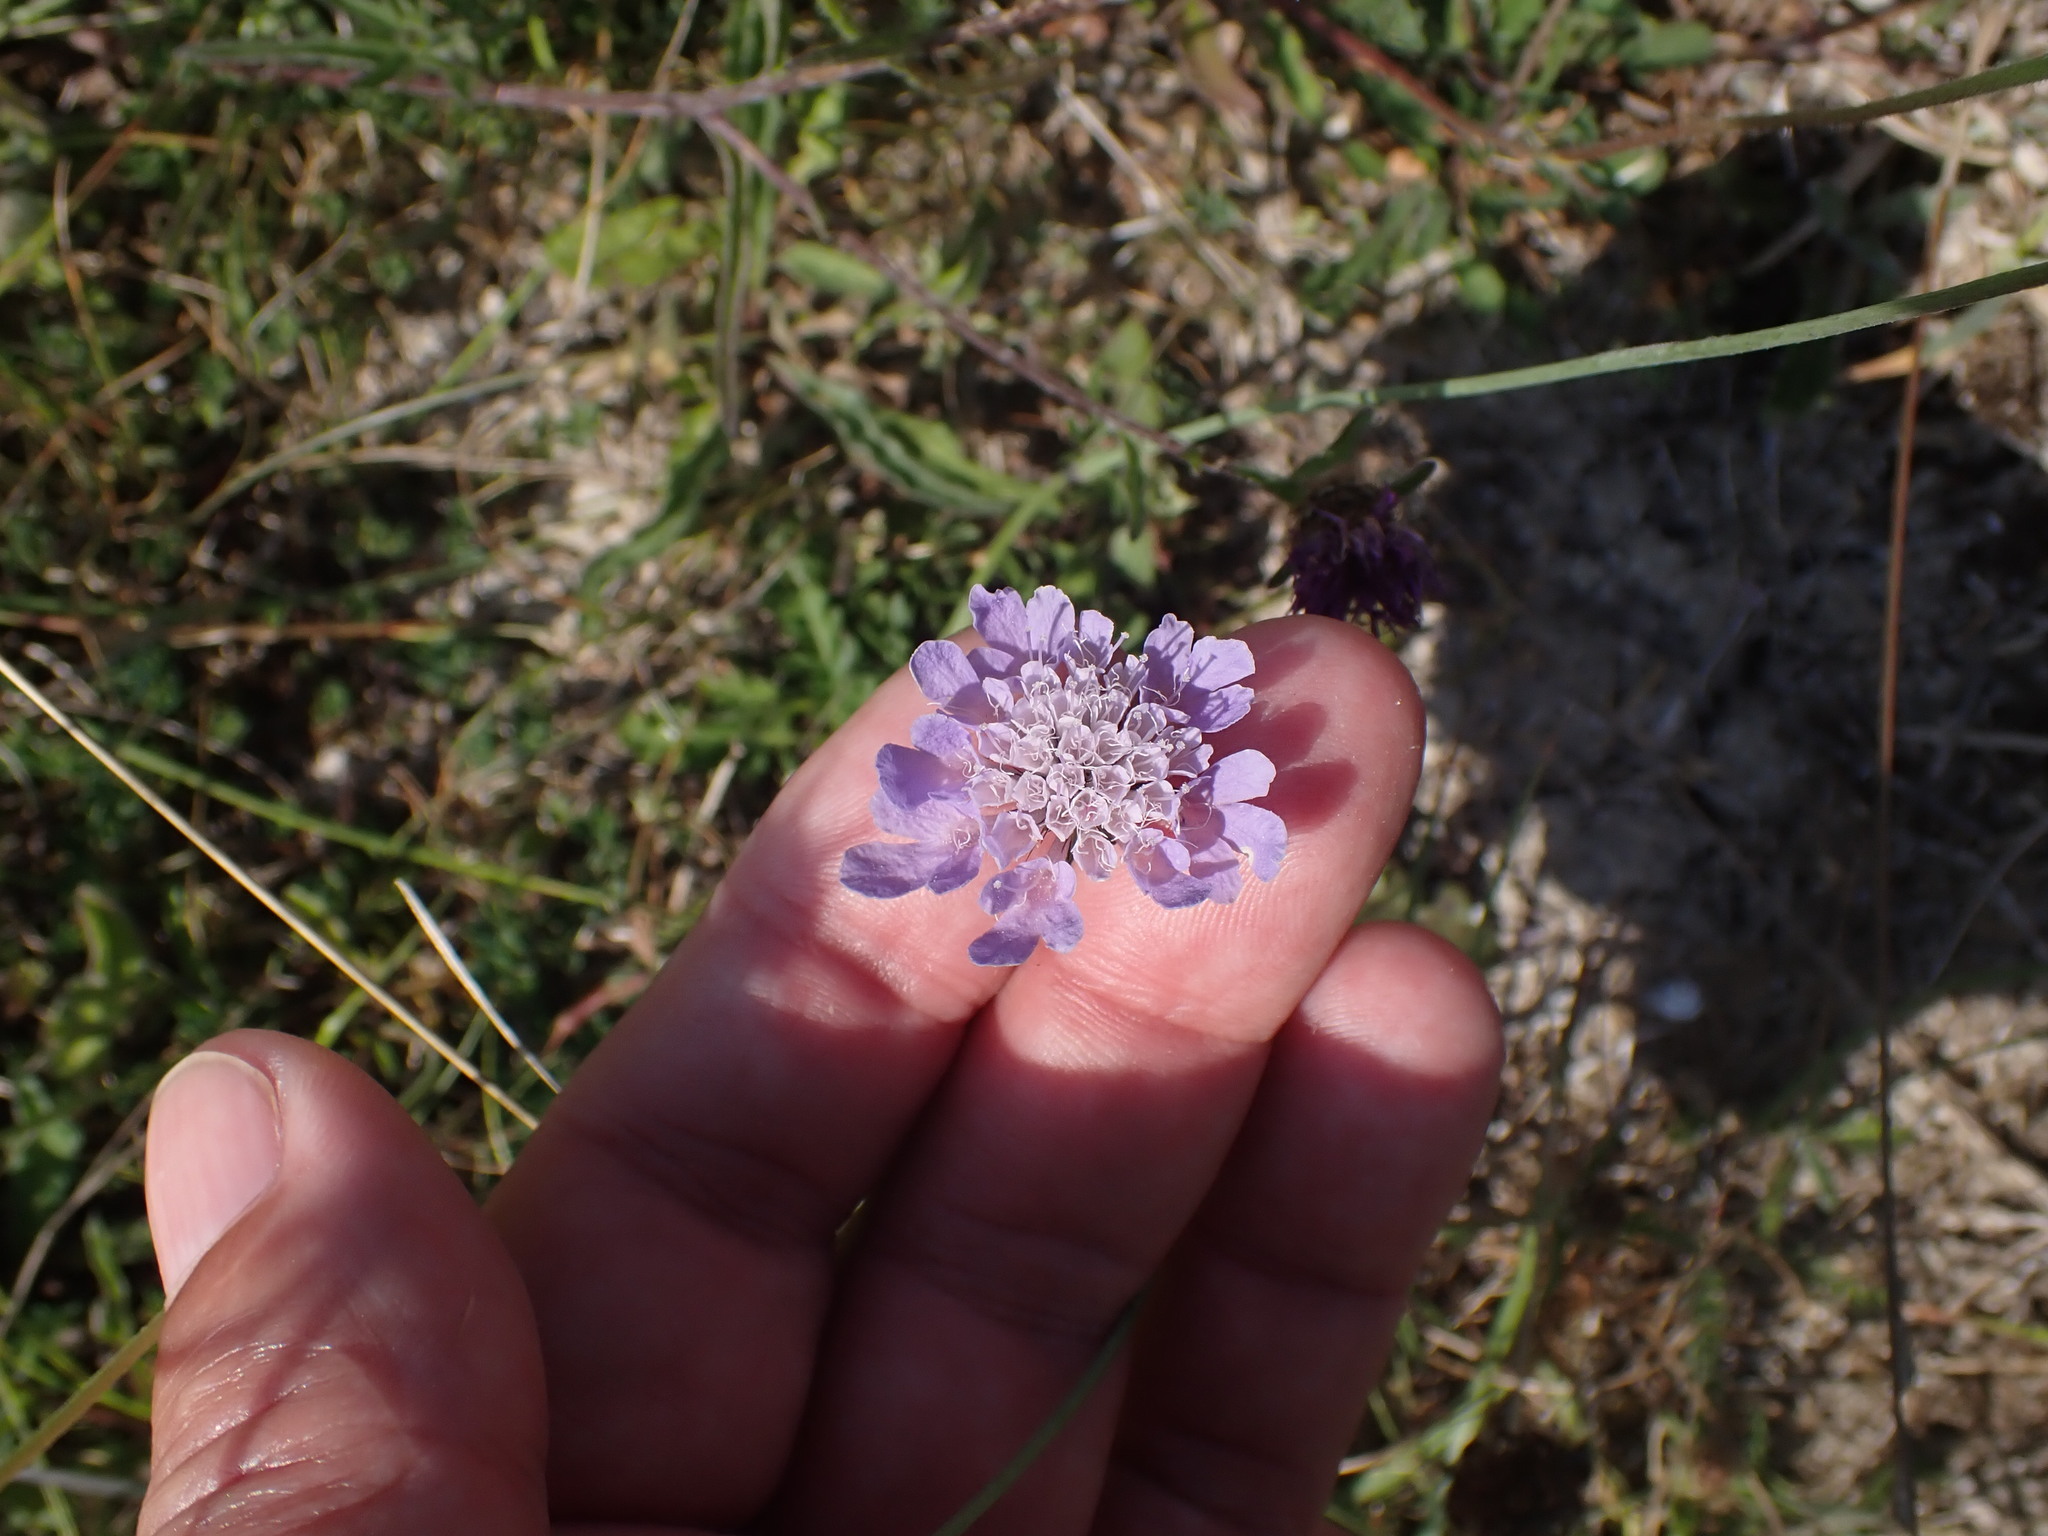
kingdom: Plantae
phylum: Tracheophyta
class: Magnoliopsida
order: Dipsacales
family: Caprifoliaceae
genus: Scabiosa
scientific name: Scabiosa columbaria
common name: Small scabious
